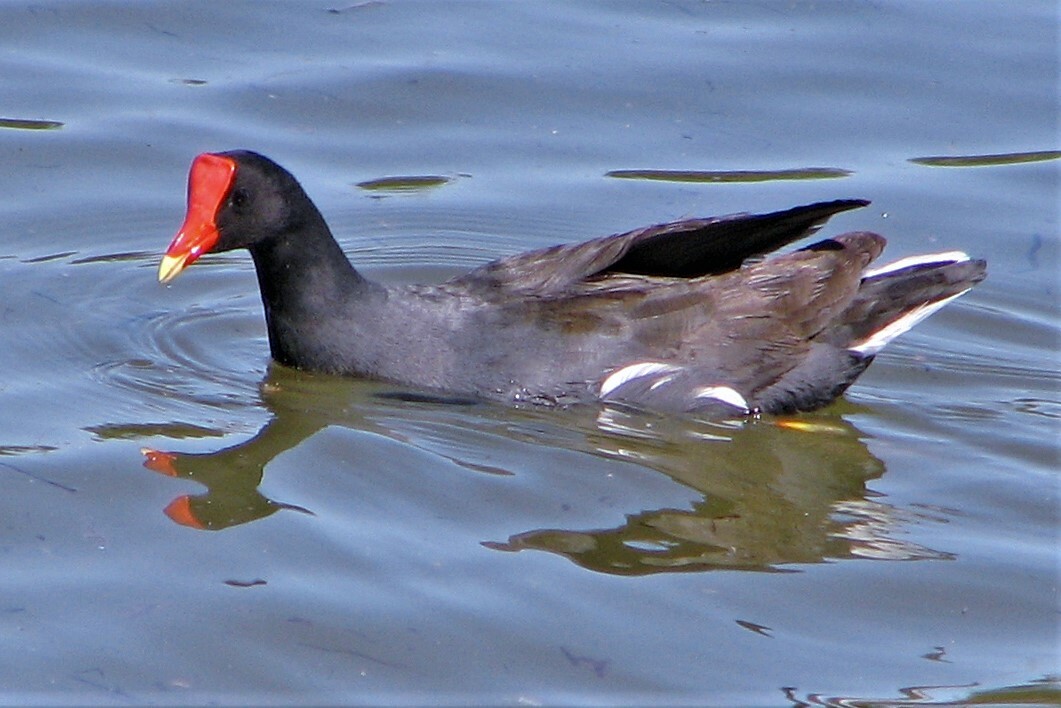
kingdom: Animalia
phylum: Chordata
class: Aves
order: Gruiformes
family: Rallidae
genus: Gallinula
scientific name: Gallinula chloropus
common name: Common moorhen
